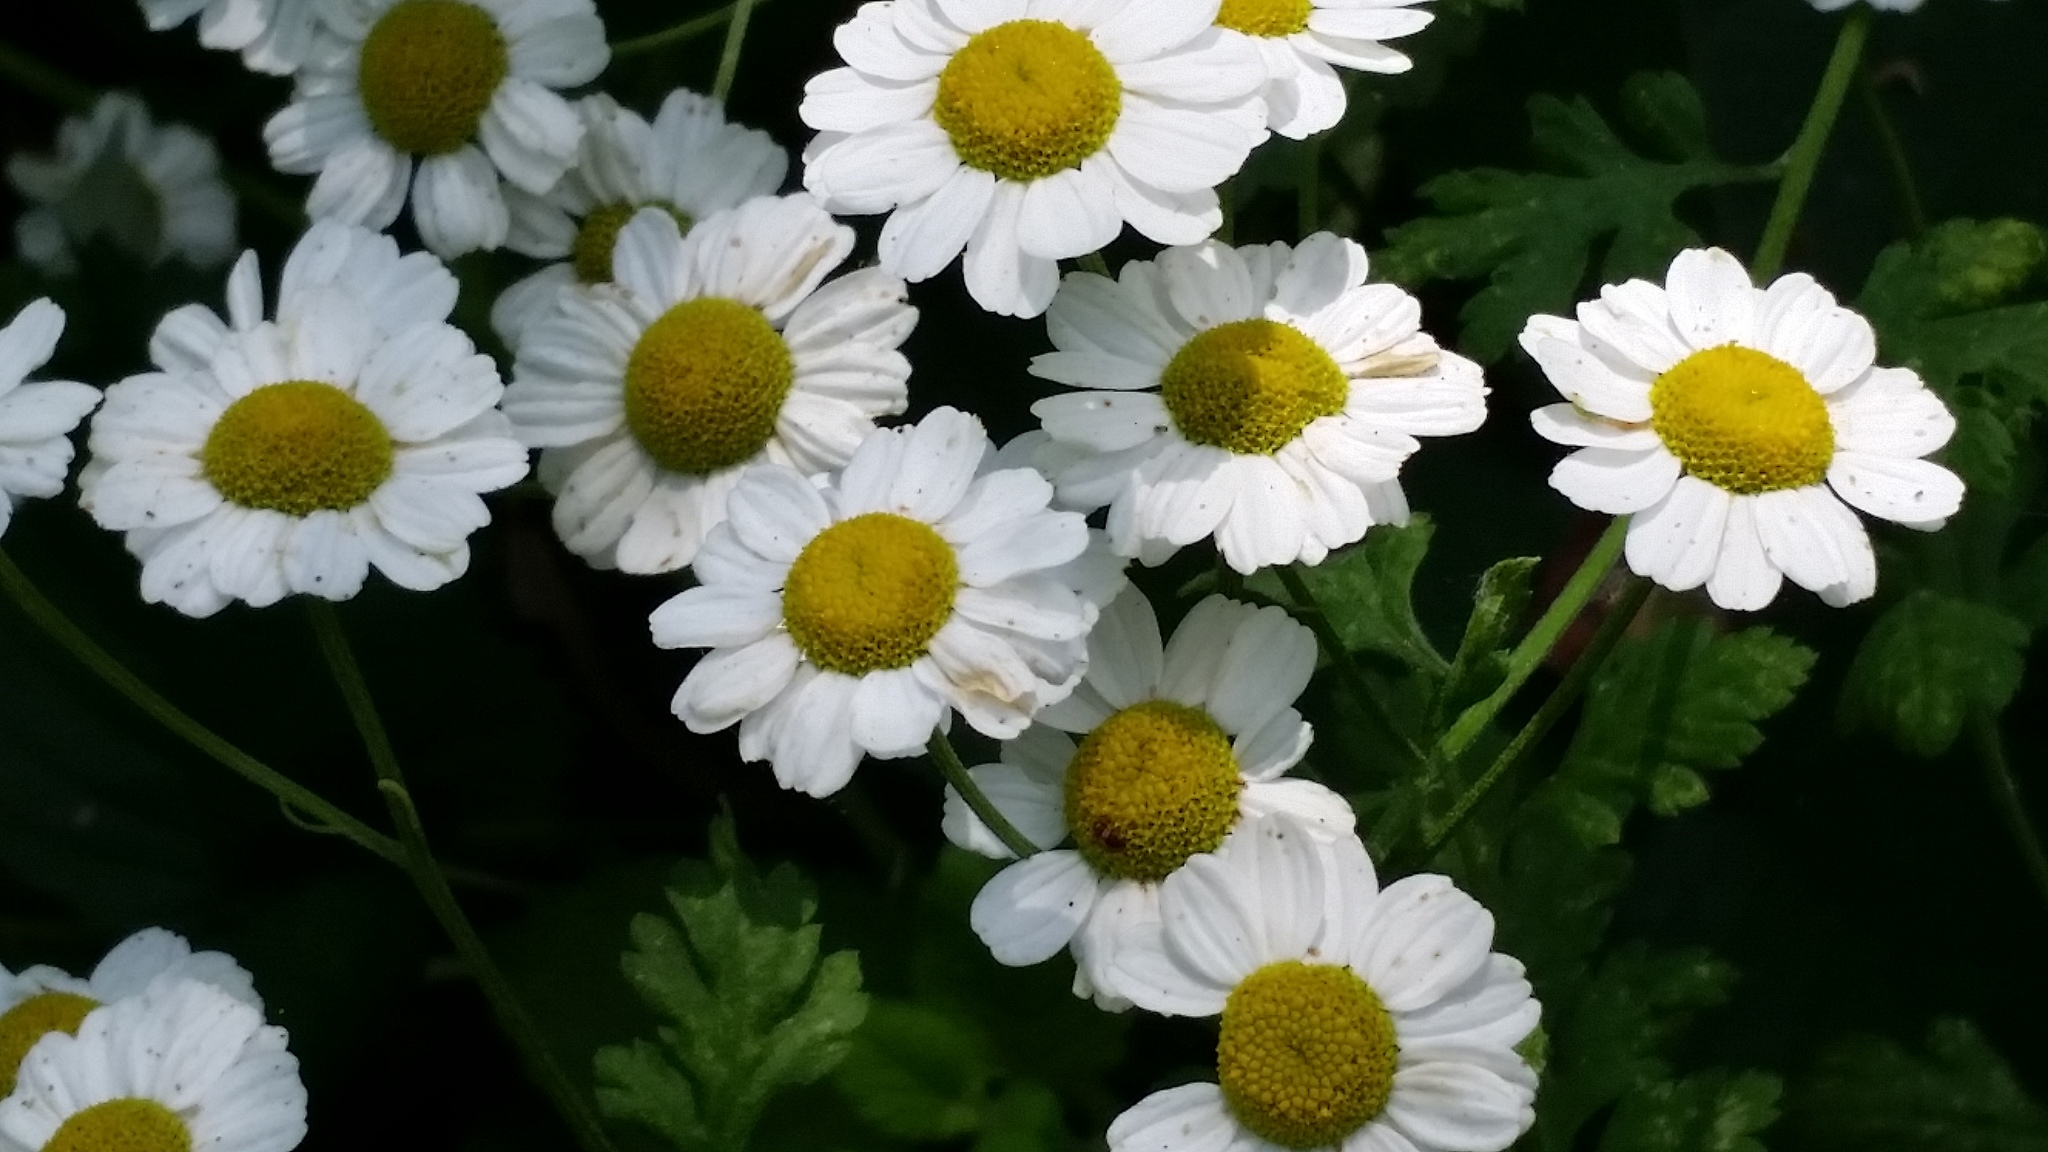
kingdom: Plantae
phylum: Tracheophyta
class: Magnoliopsida
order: Asterales
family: Asteraceae
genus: Tanacetum
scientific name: Tanacetum parthenium
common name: Feverfew
